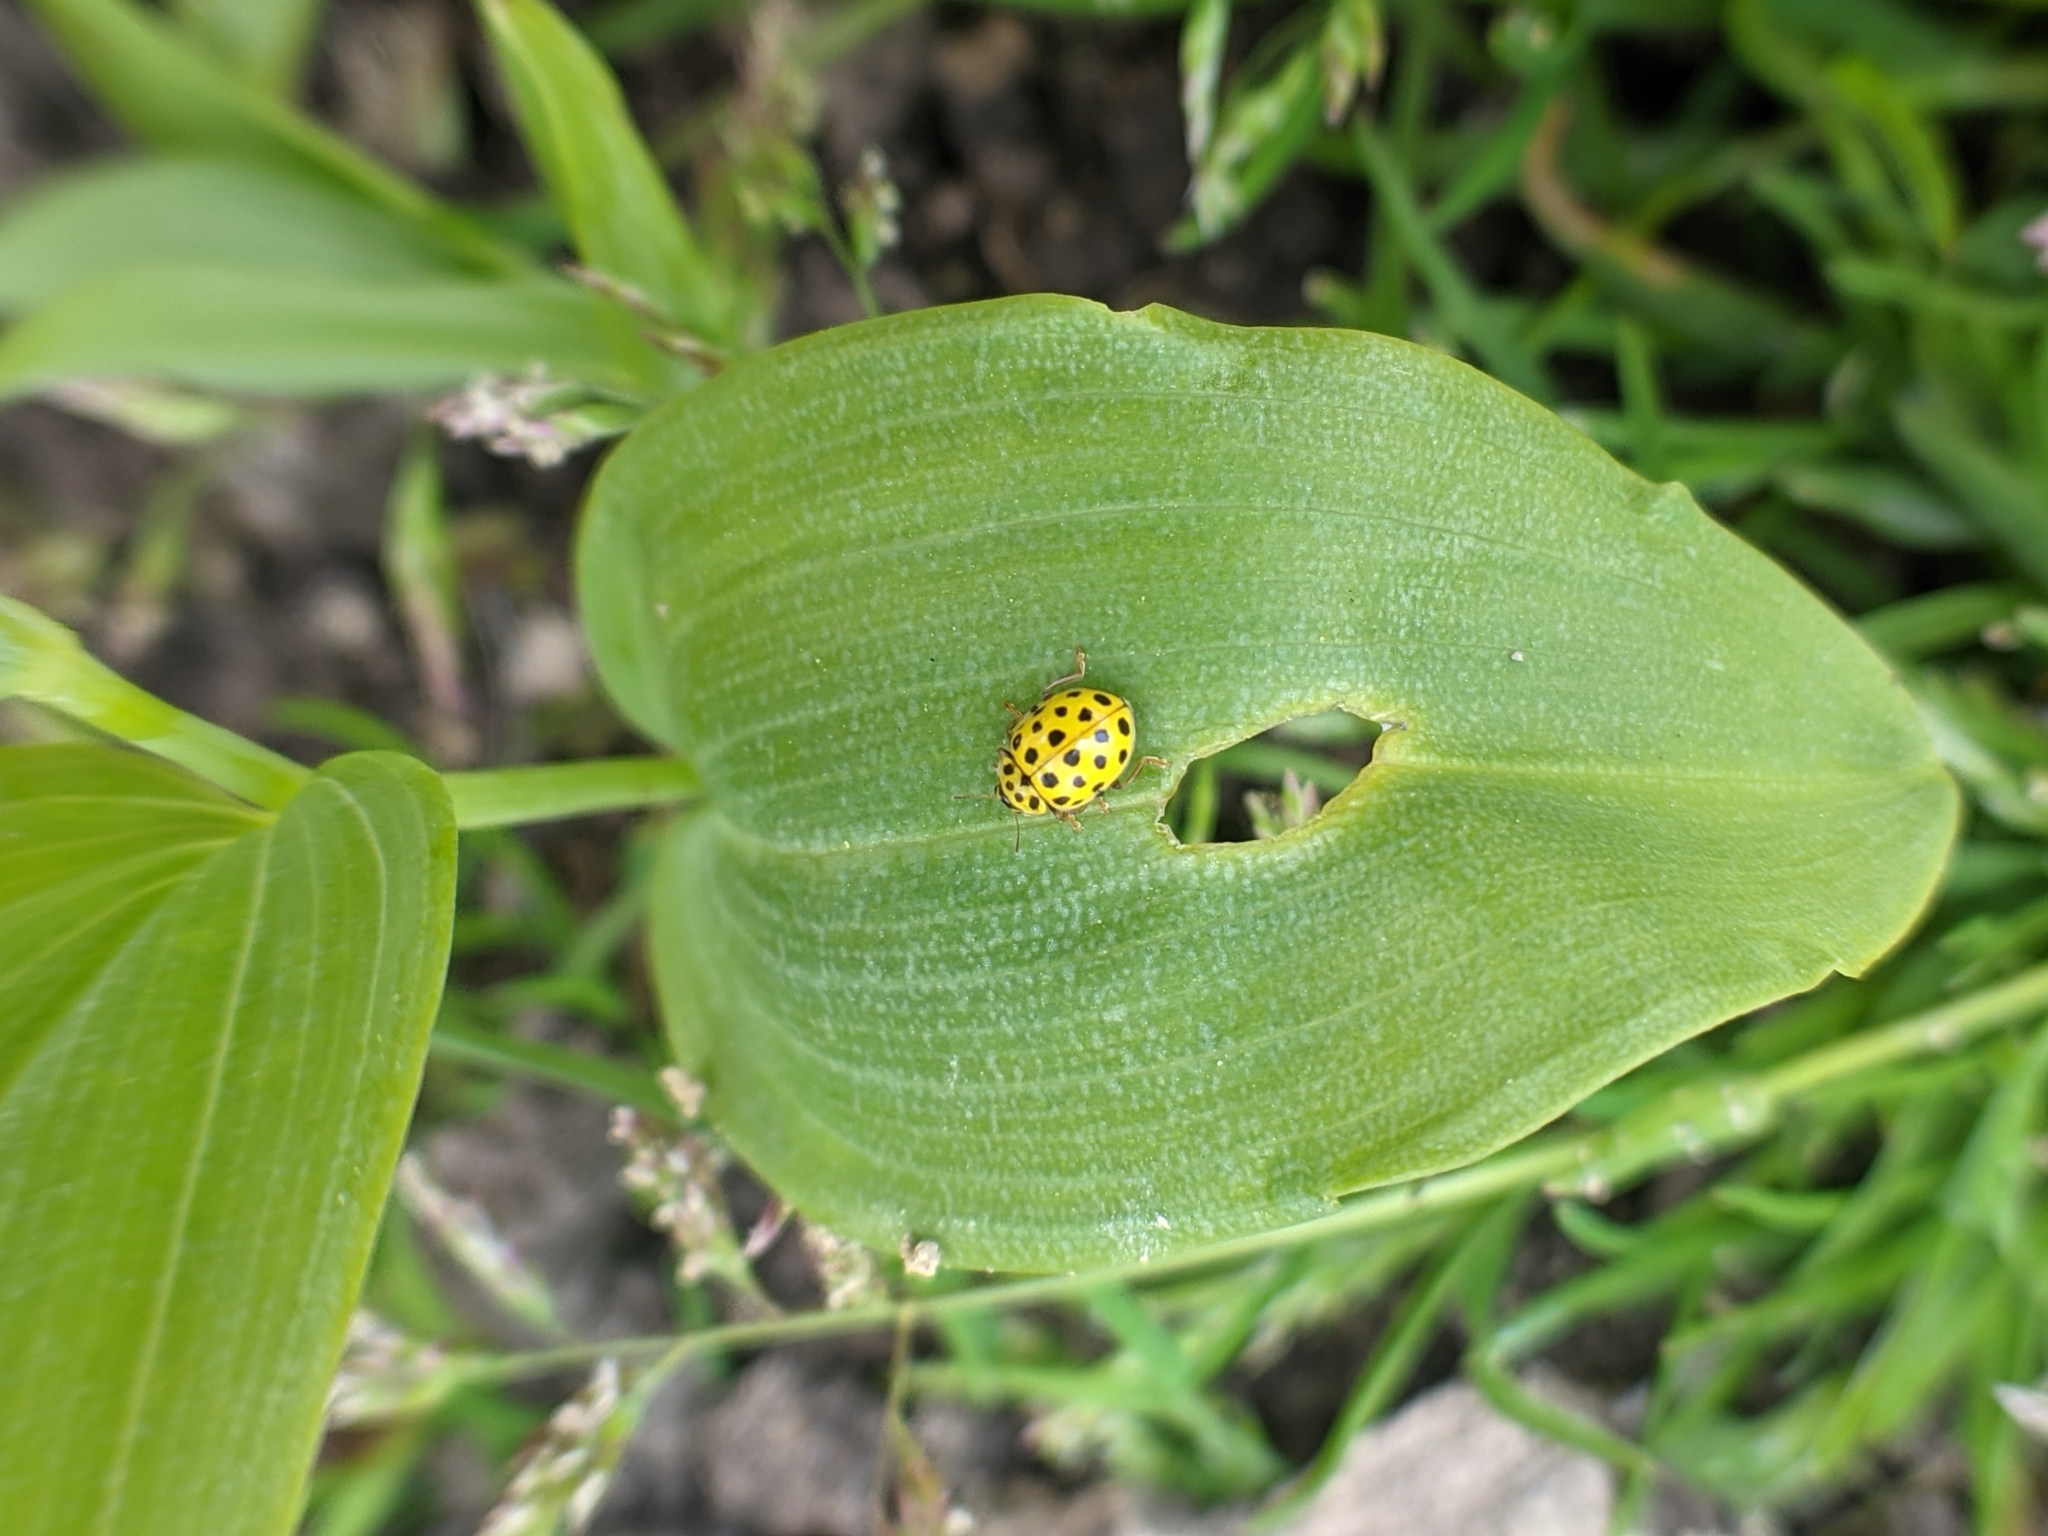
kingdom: Animalia
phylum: Arthropoda
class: Insecta
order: Coleoptera
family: Coccinellidae
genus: Psyllobora
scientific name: Psyllobora vigintiduopunctata
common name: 22-spot ladybird
